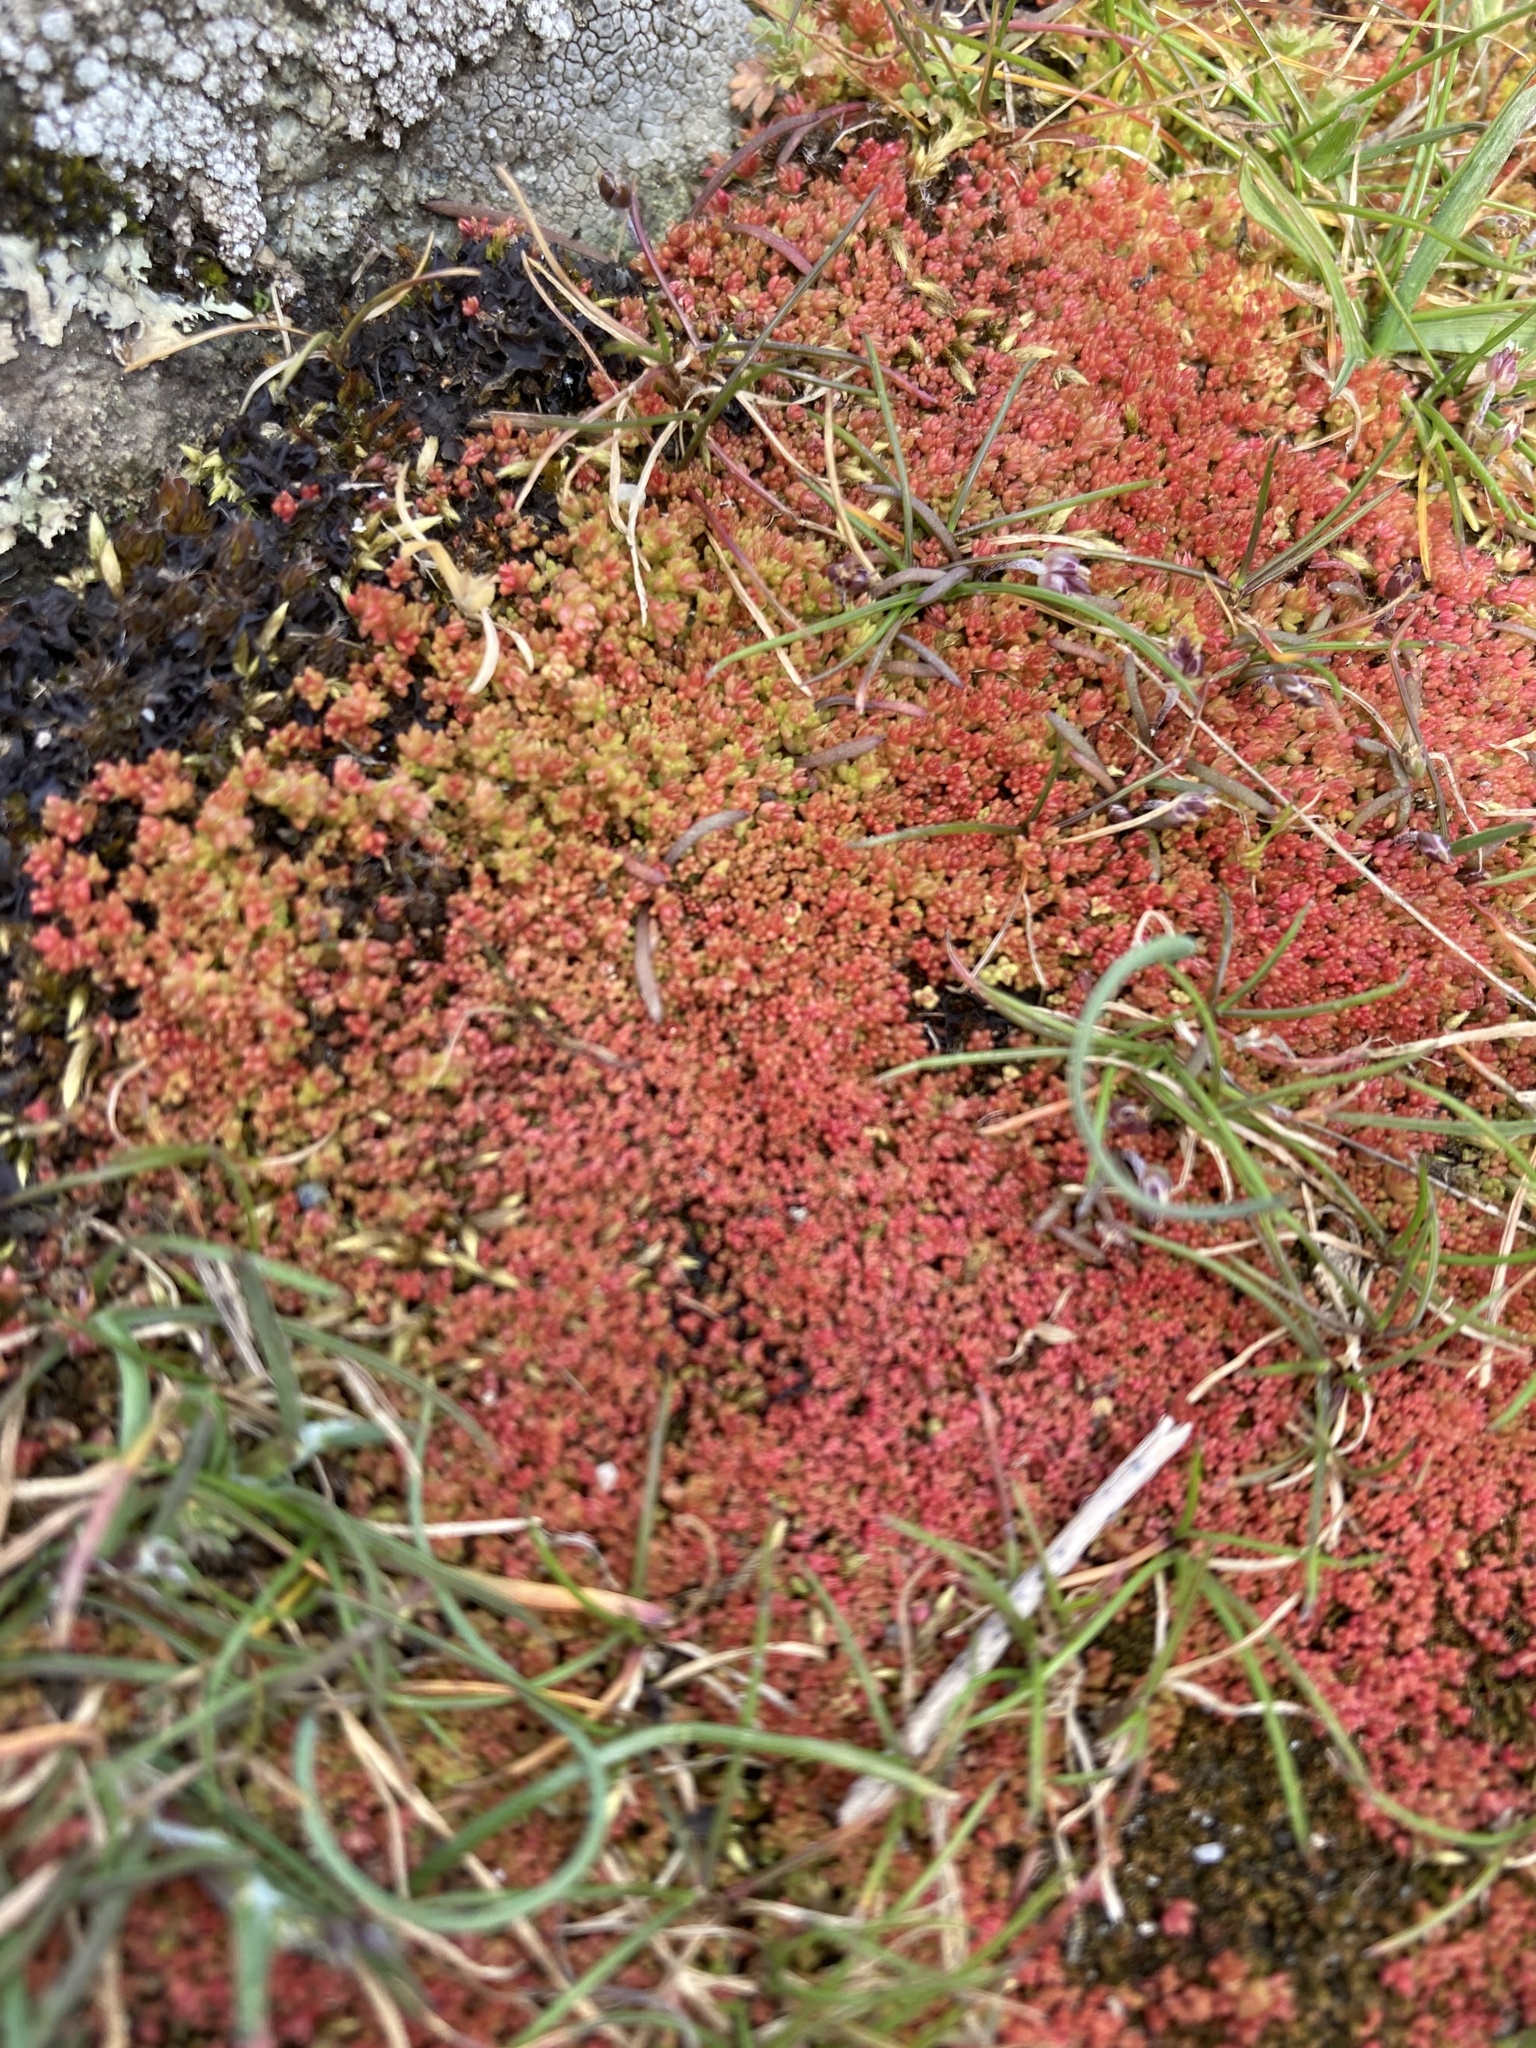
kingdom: Plantae
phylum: Tracheophyta
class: Magnoliopsida
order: Saxifragales
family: Crassulaceae
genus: Crassula
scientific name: Crassula tillaea
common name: Mossy stonecrop
